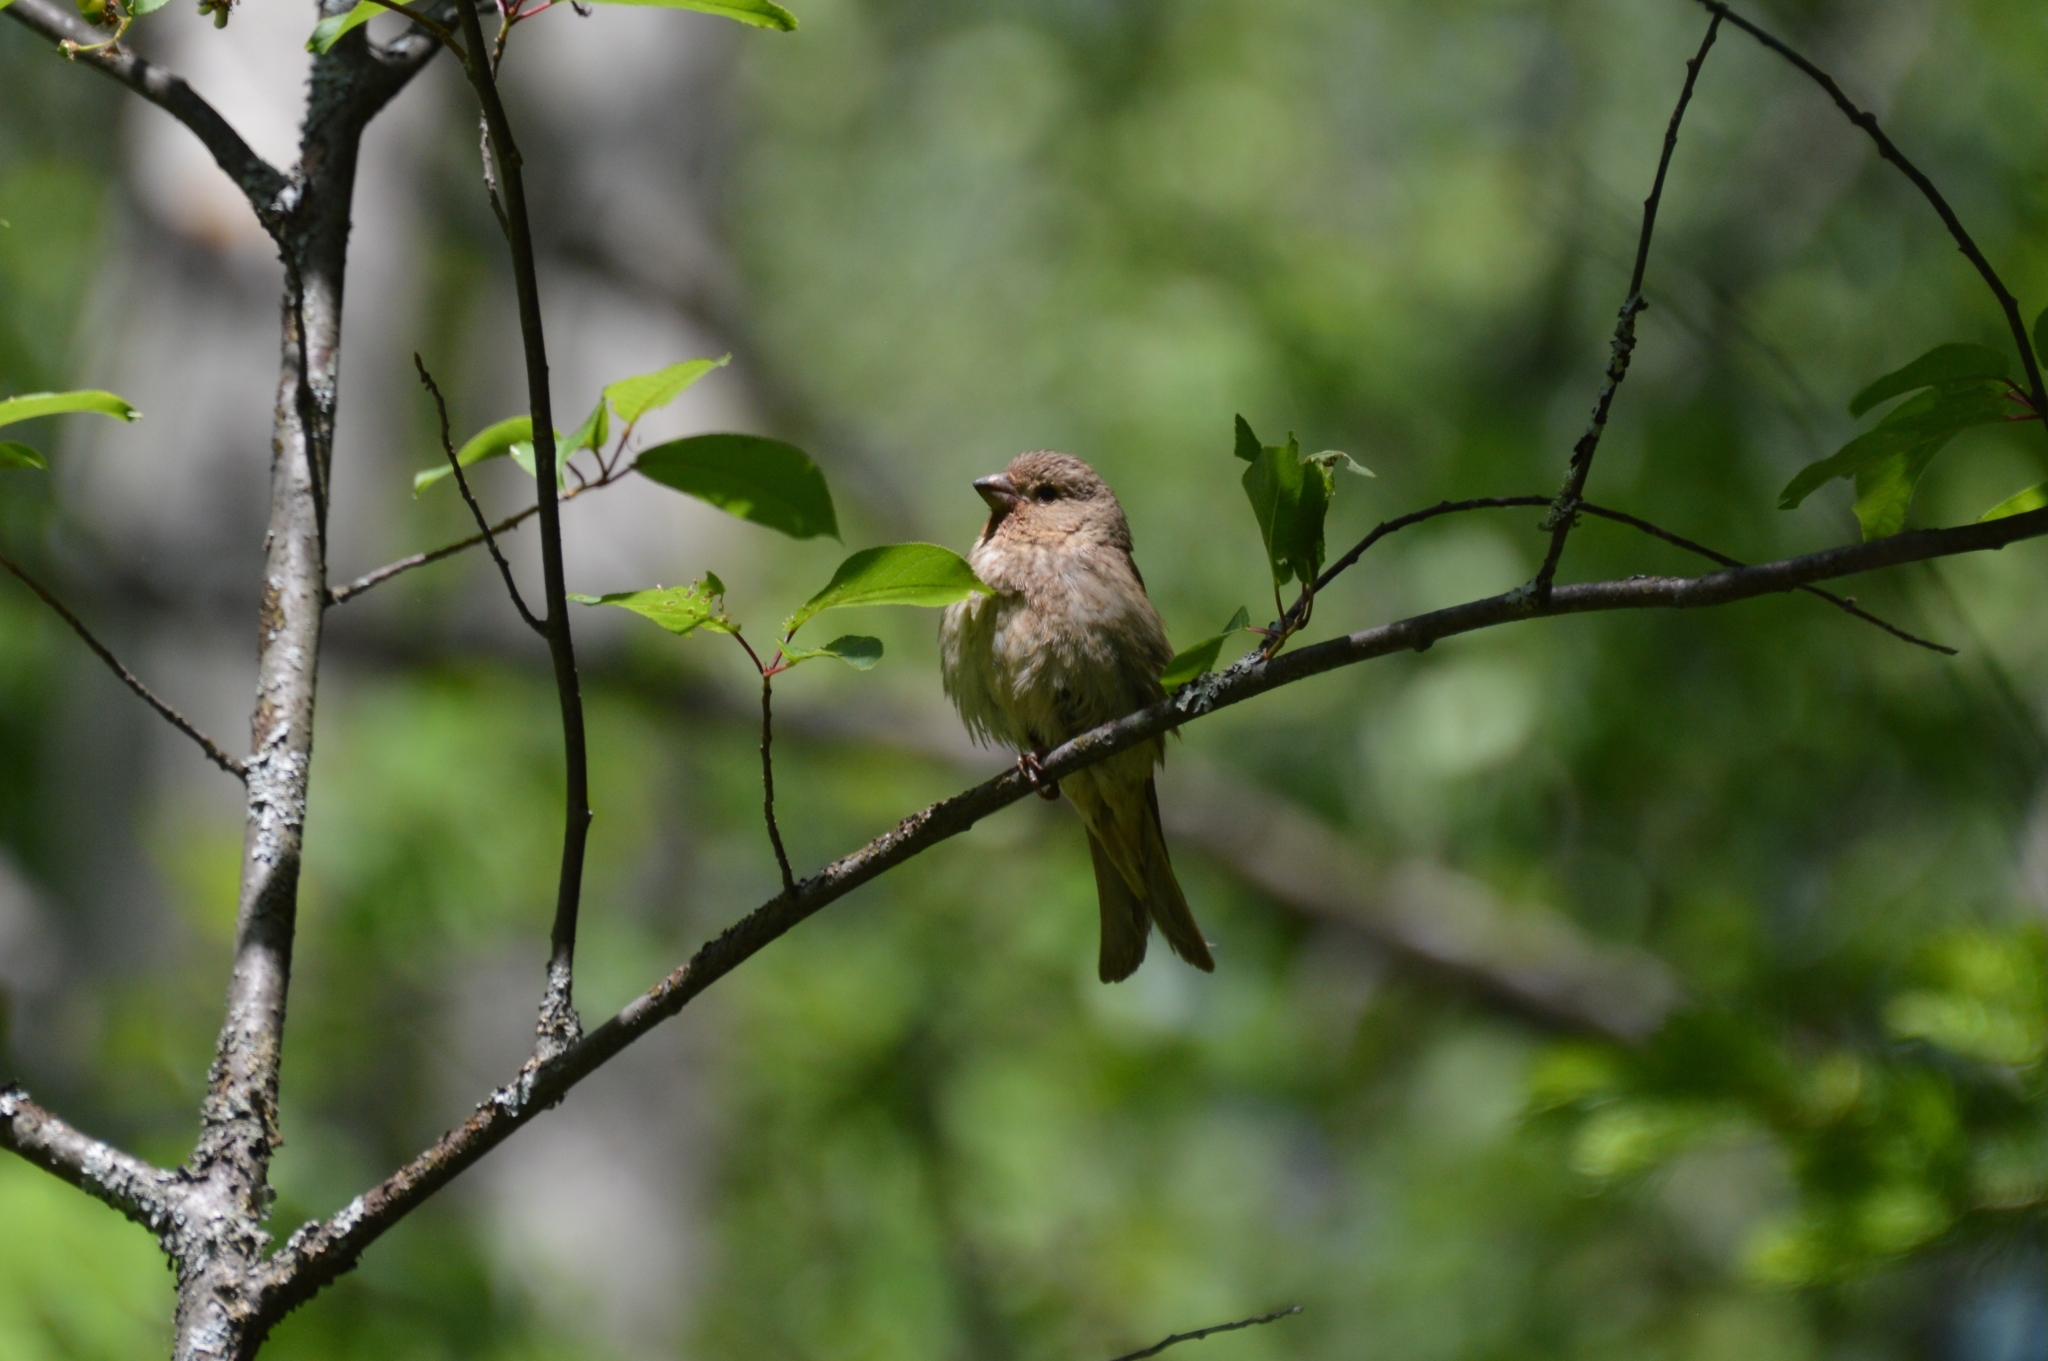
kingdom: Animalia
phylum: Chordata
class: Aves
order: Passeriformes
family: Fringillidae
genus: Carpodacus
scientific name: Carpodacus erythrinus
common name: Common rosefinch
